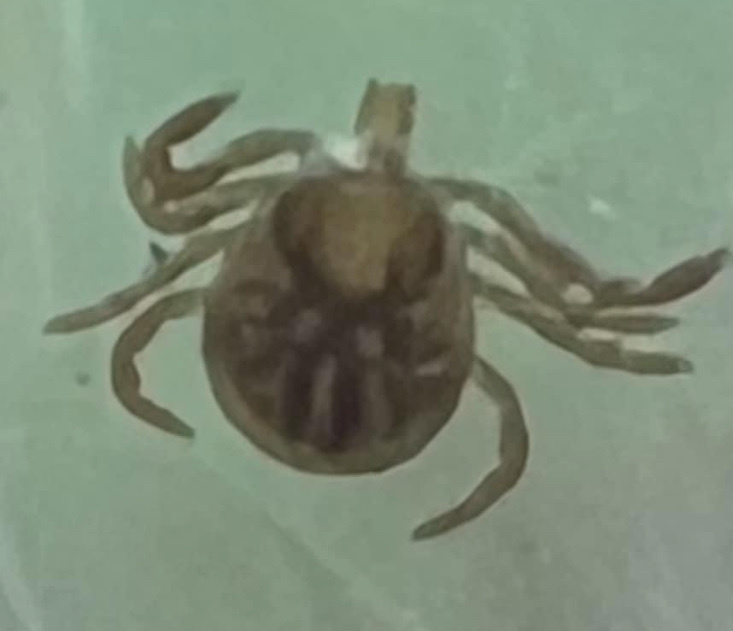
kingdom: Animalia
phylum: Arthropoda
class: Arachnida
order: Ixodida
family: Ixodidae
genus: Amblyomma
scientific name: Amblyomma americanum
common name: Lone star tick
